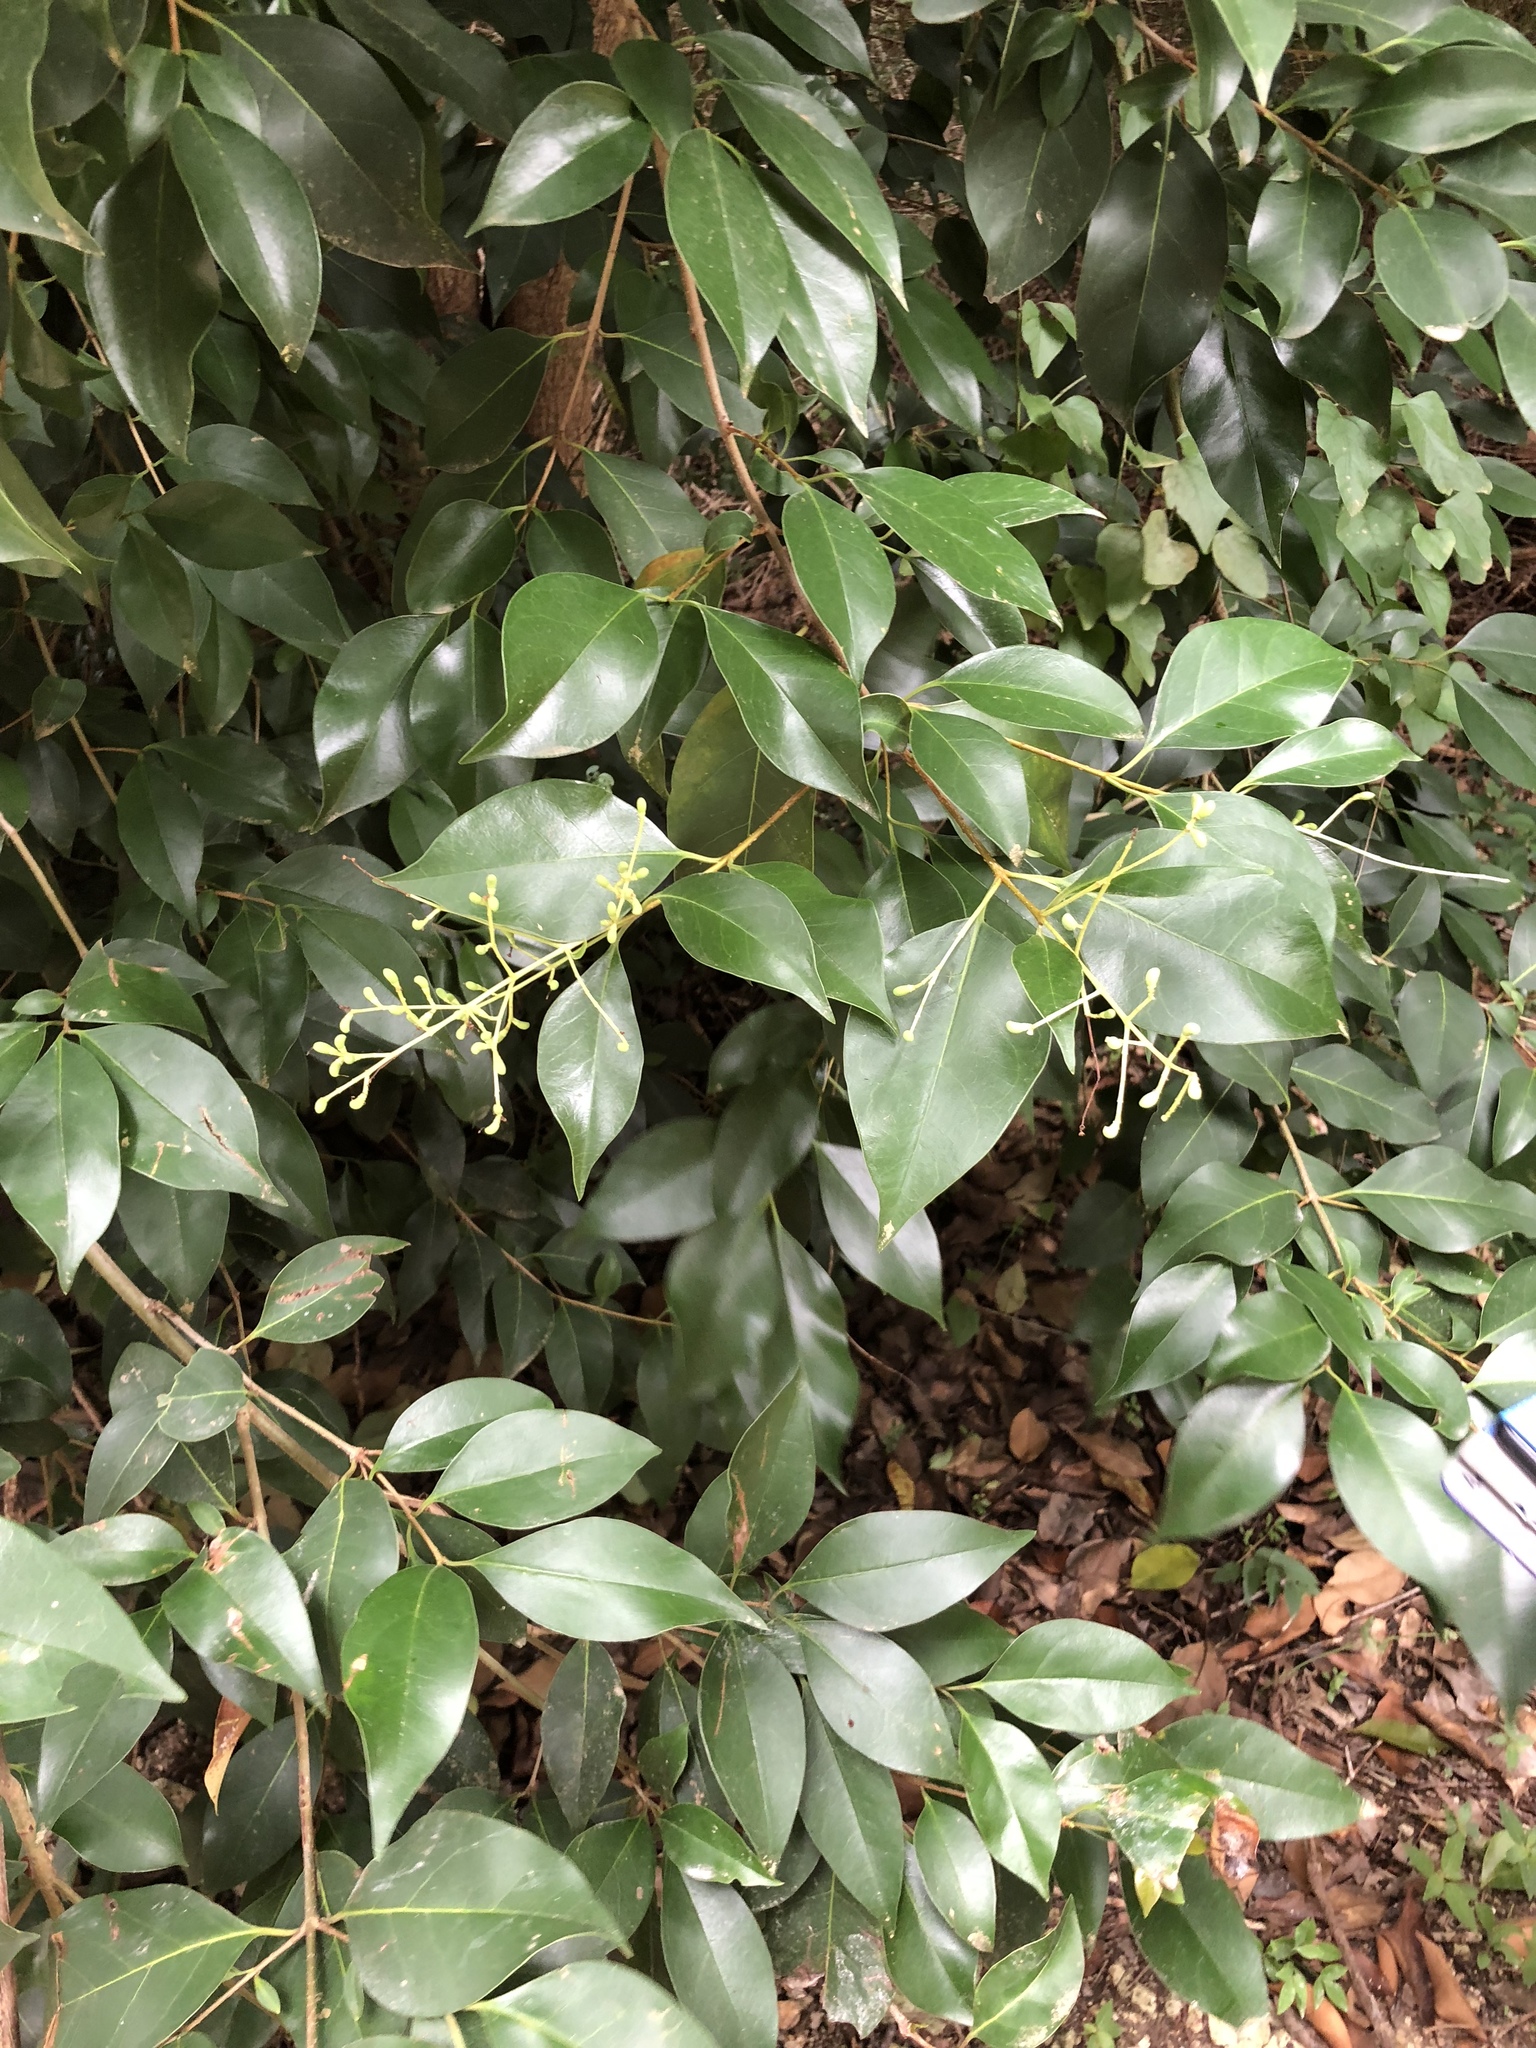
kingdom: Plantae
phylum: Tracheophyta
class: Magnoliopsida
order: Lamiales
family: Oleaceae
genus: Ligustrum
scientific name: Ligustrum lucidum
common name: Glossy privet
